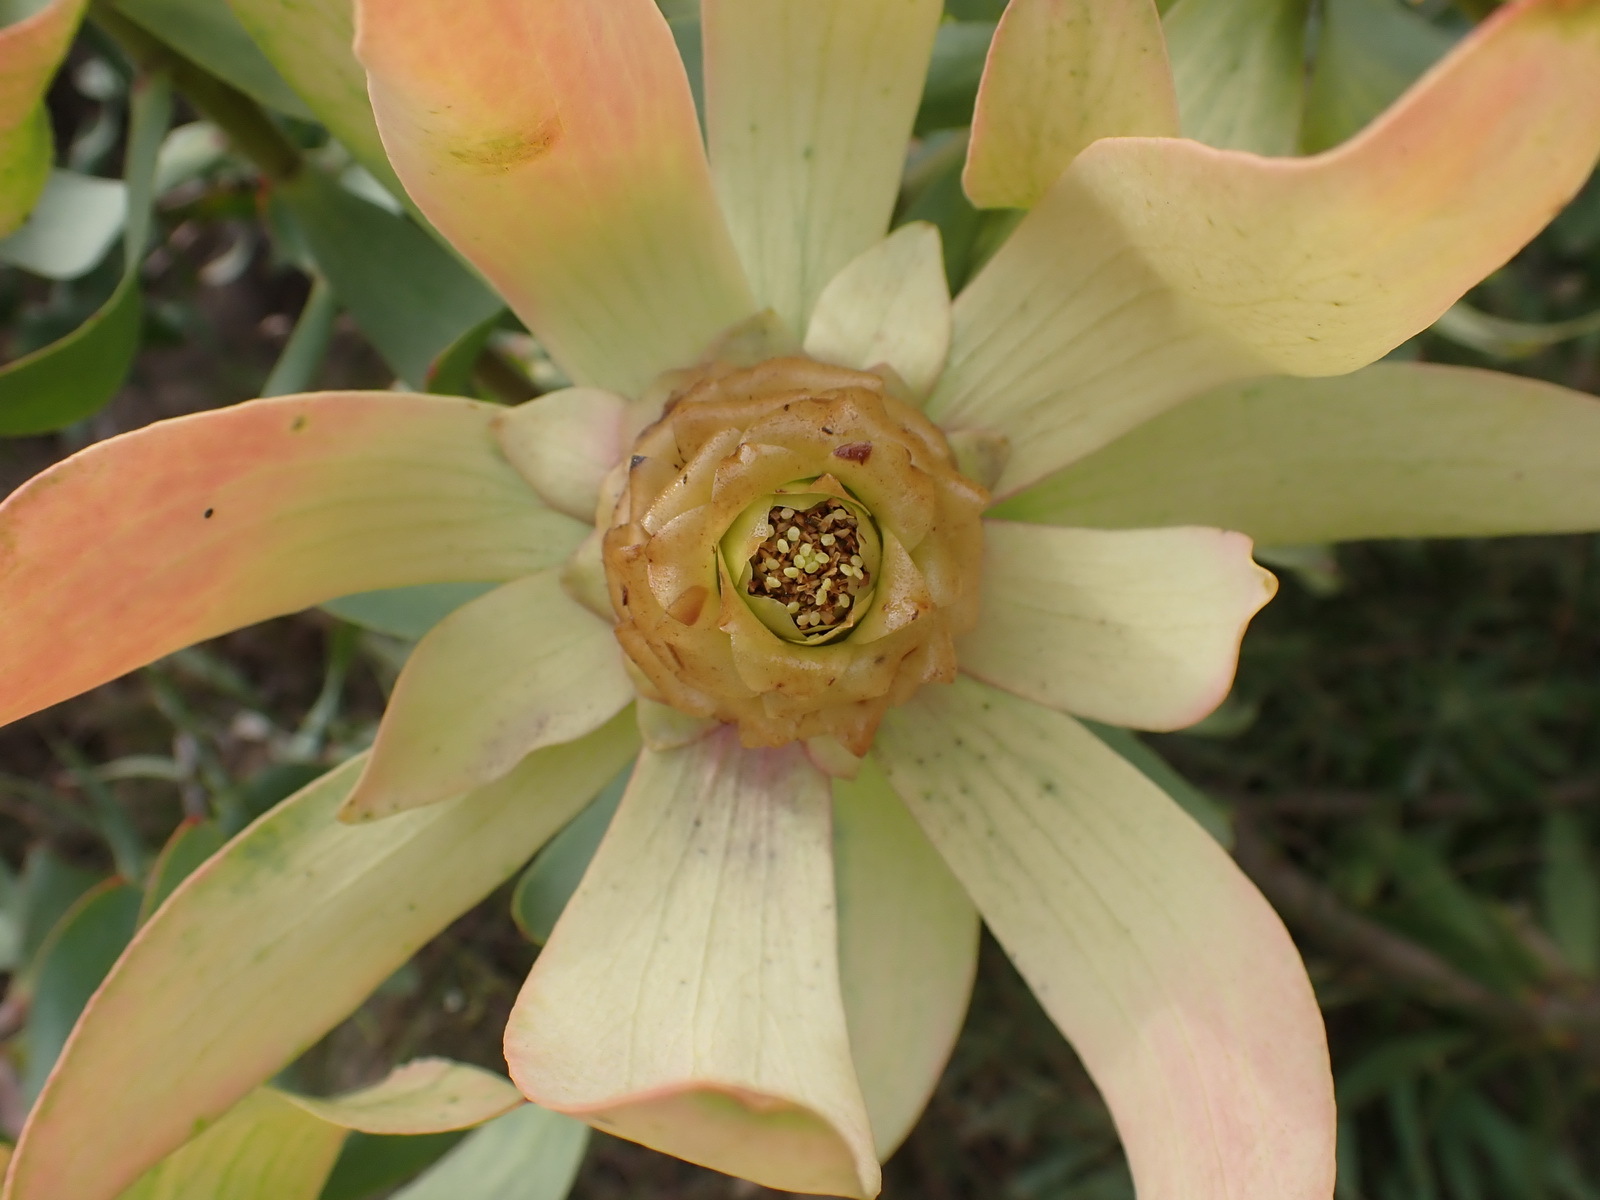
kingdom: Plantae
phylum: Tracheophyta
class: Magnoliopsida
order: Proteales
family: Proteaceae
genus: Leucadendron
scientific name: Leucadendron tinctum
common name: Spicy conebush
